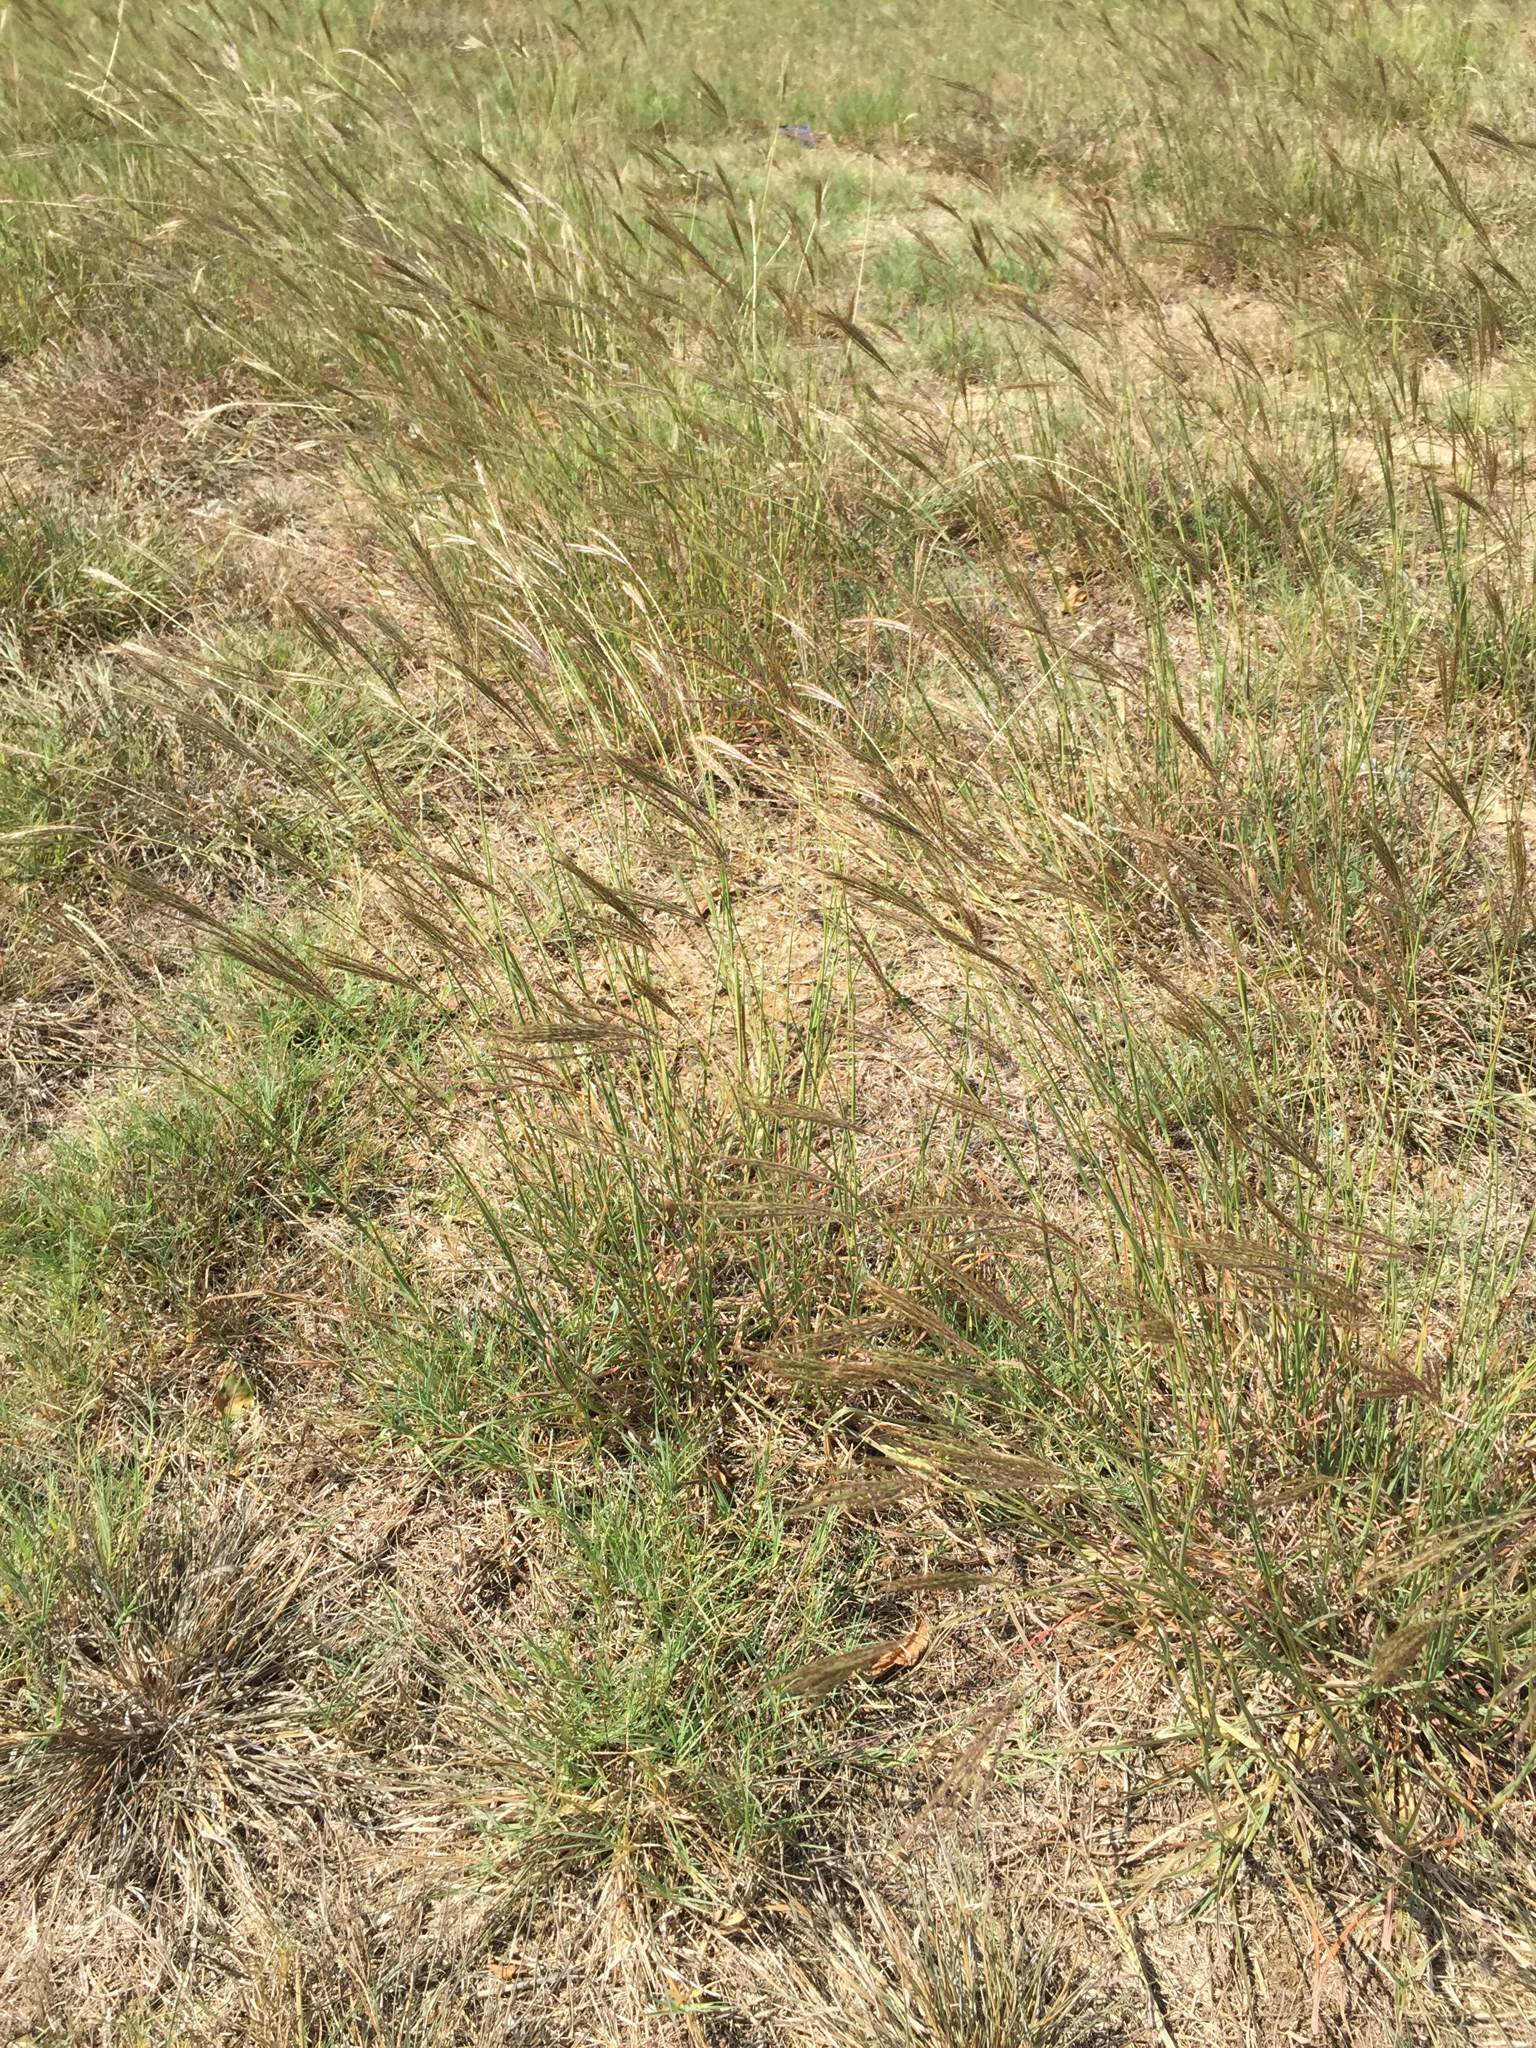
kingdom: Plantae
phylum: Tracheophyta
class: Liliopsida
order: Poales
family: Poaceae
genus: Bothriochloa
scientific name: Bothriochloa ischaemum
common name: Yellow bluestem
